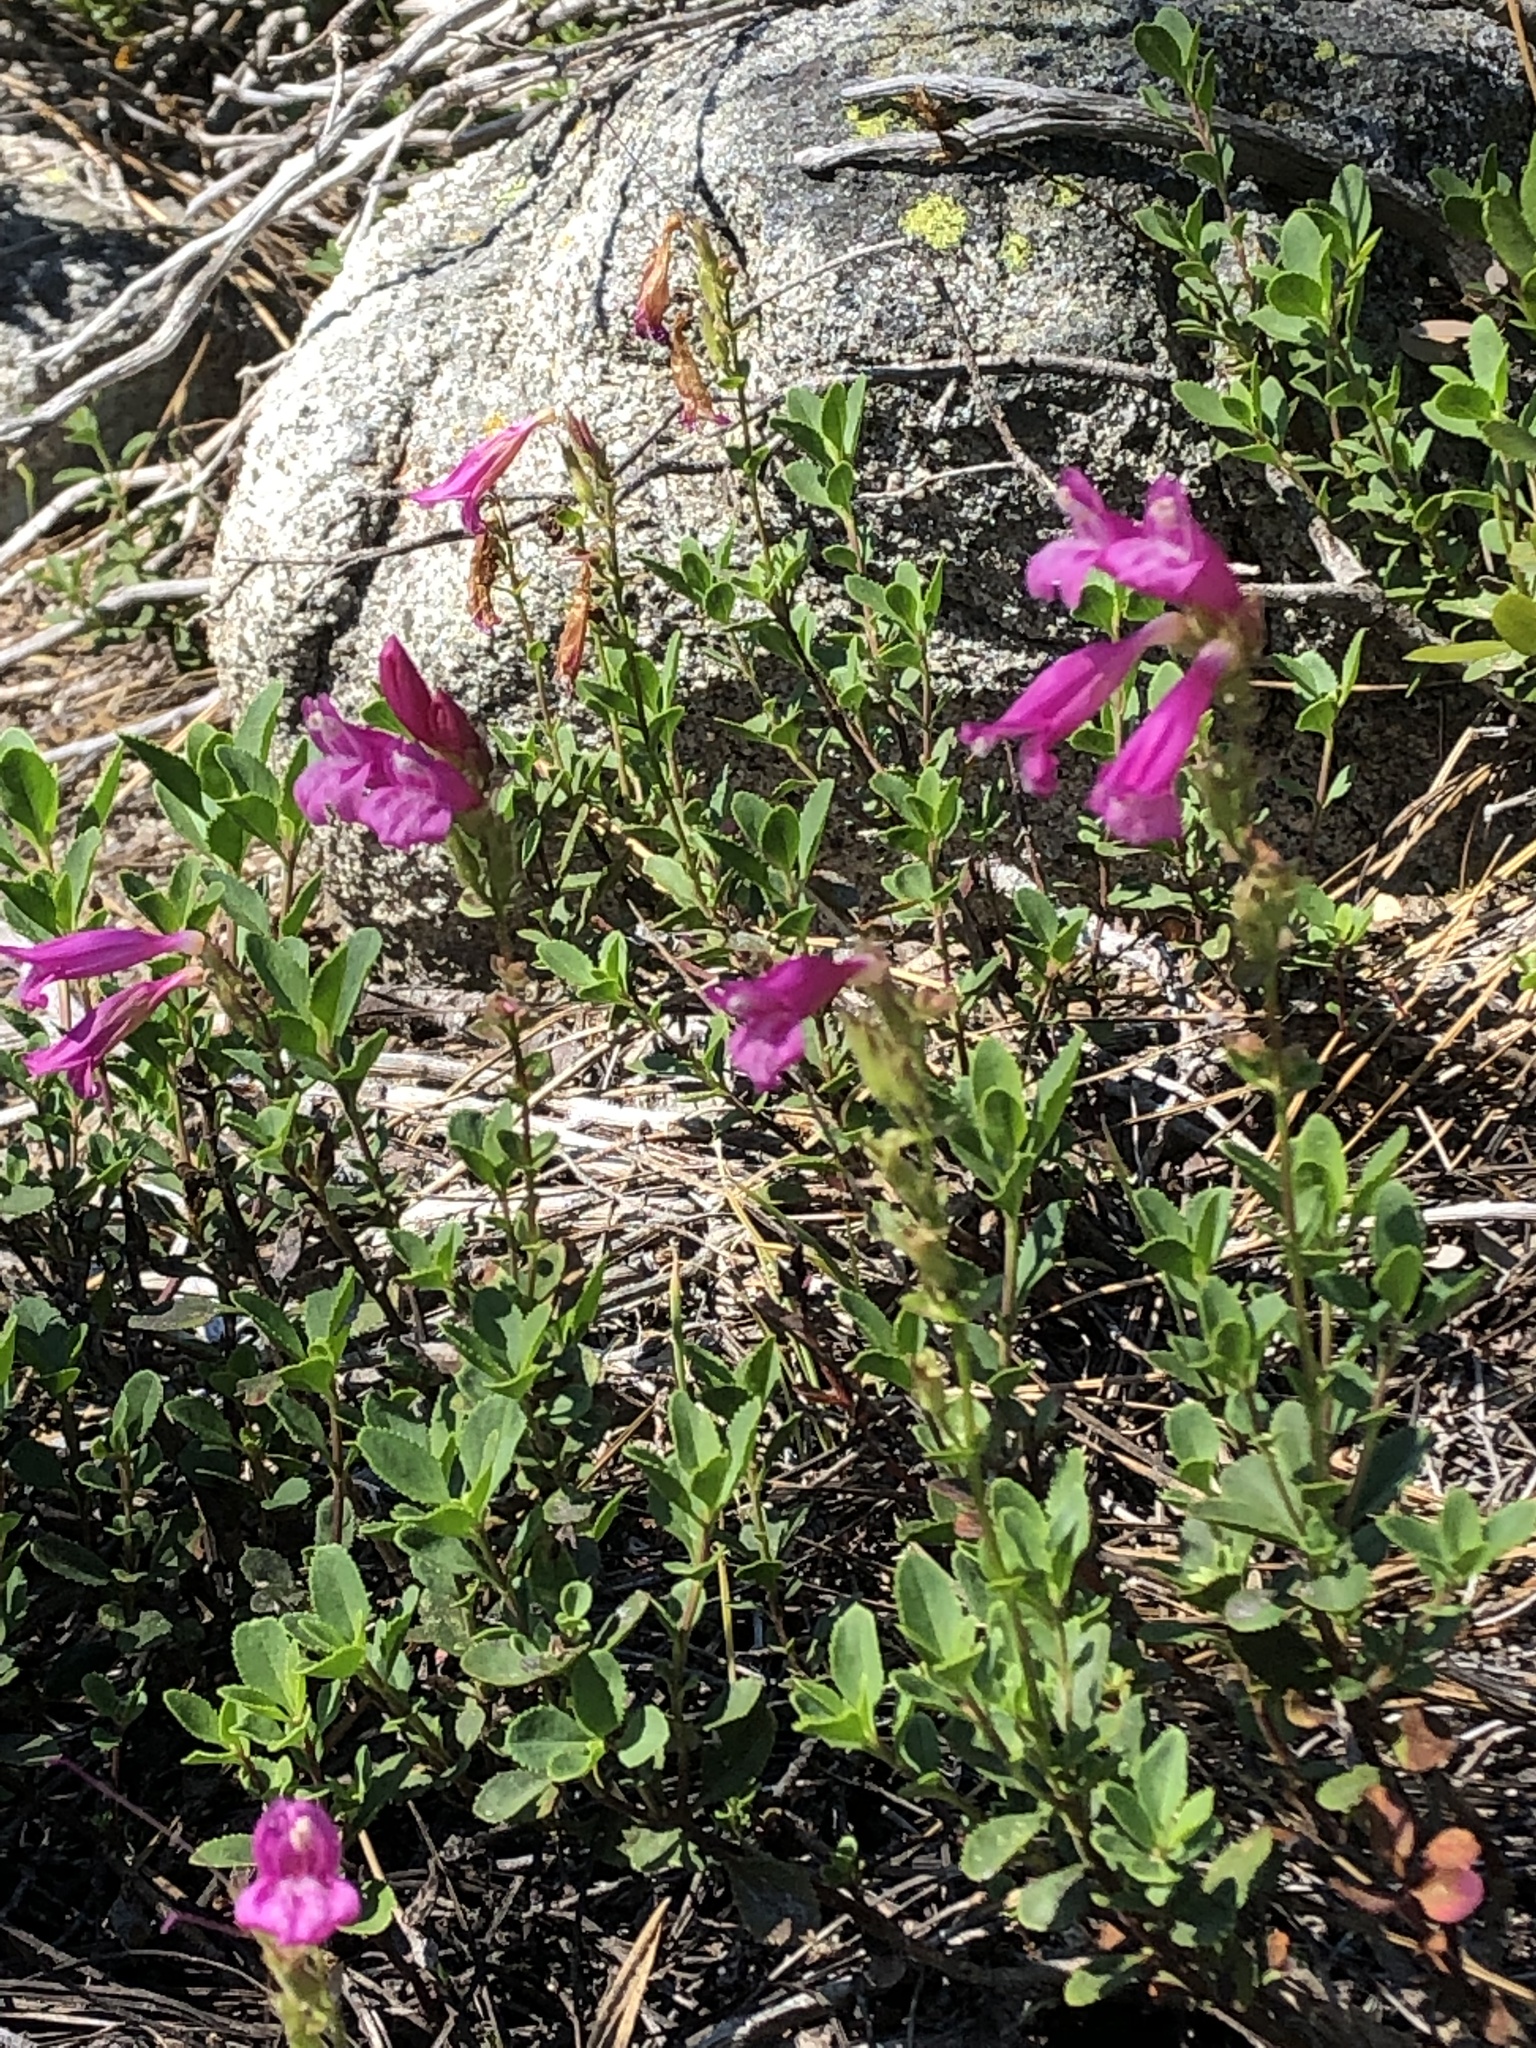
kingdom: Plantae
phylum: Tracheophyta
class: Magnoliopsida
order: Lamiales
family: Plantaginaceae
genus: Penstemon
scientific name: Penstemon newberryi
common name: Mountain-pride
